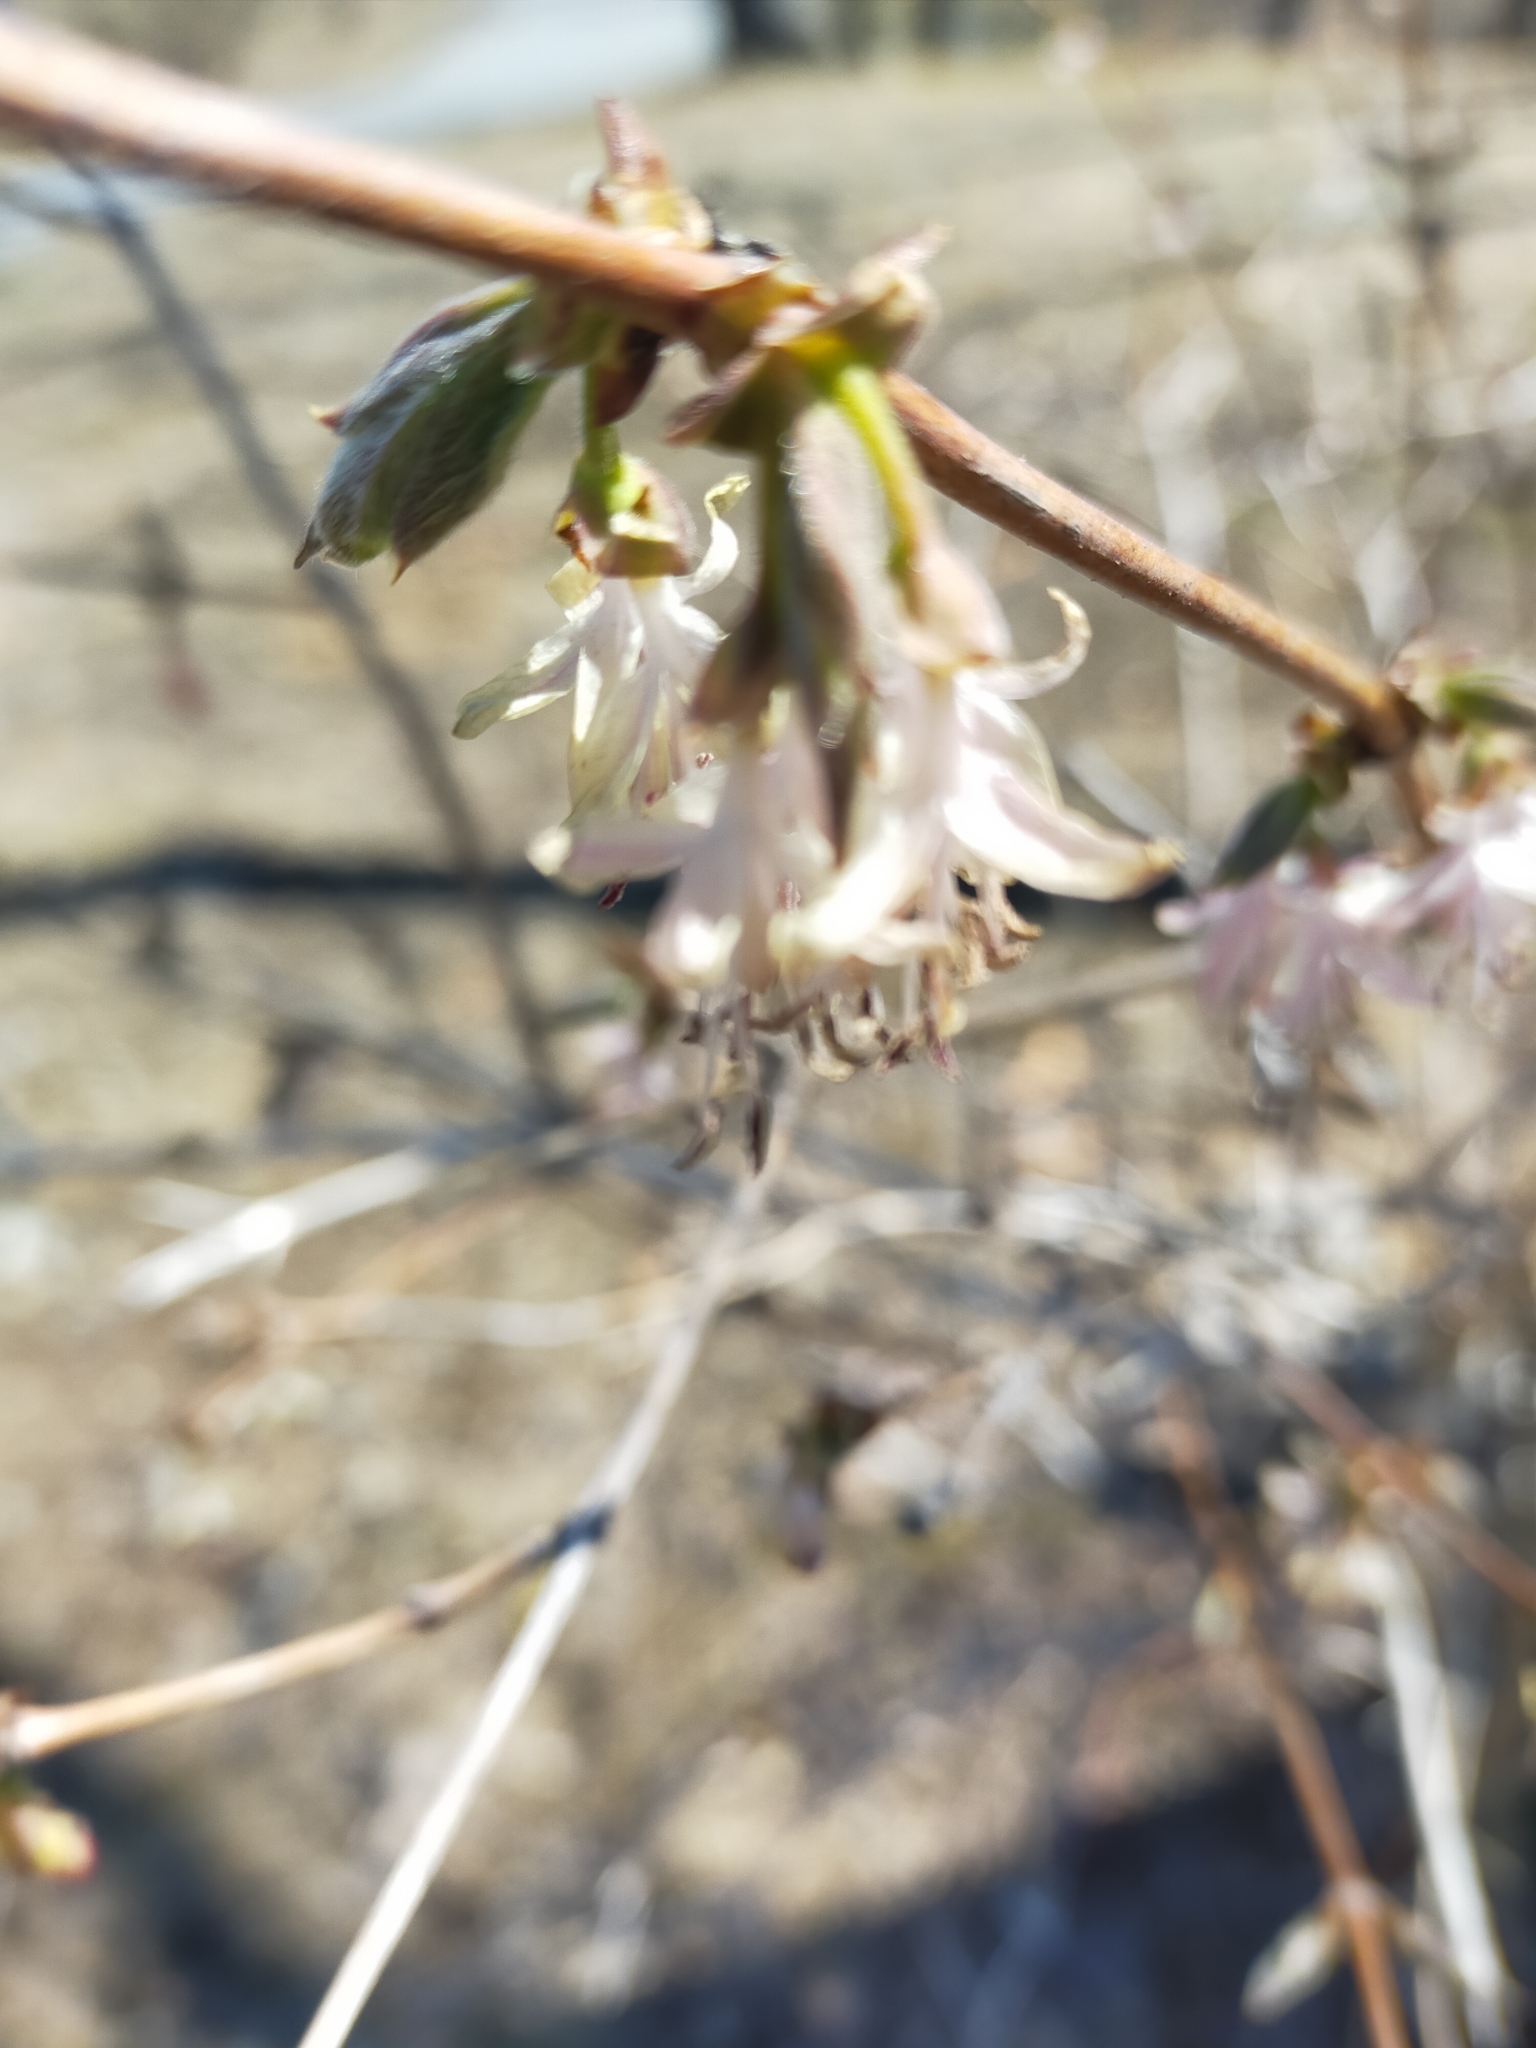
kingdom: Plantae
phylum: Tracheophyta
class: Magnoliopsida
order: Dipsacales
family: Caprifoliaceae
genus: Lonicera
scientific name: Lonicera praeflorens
